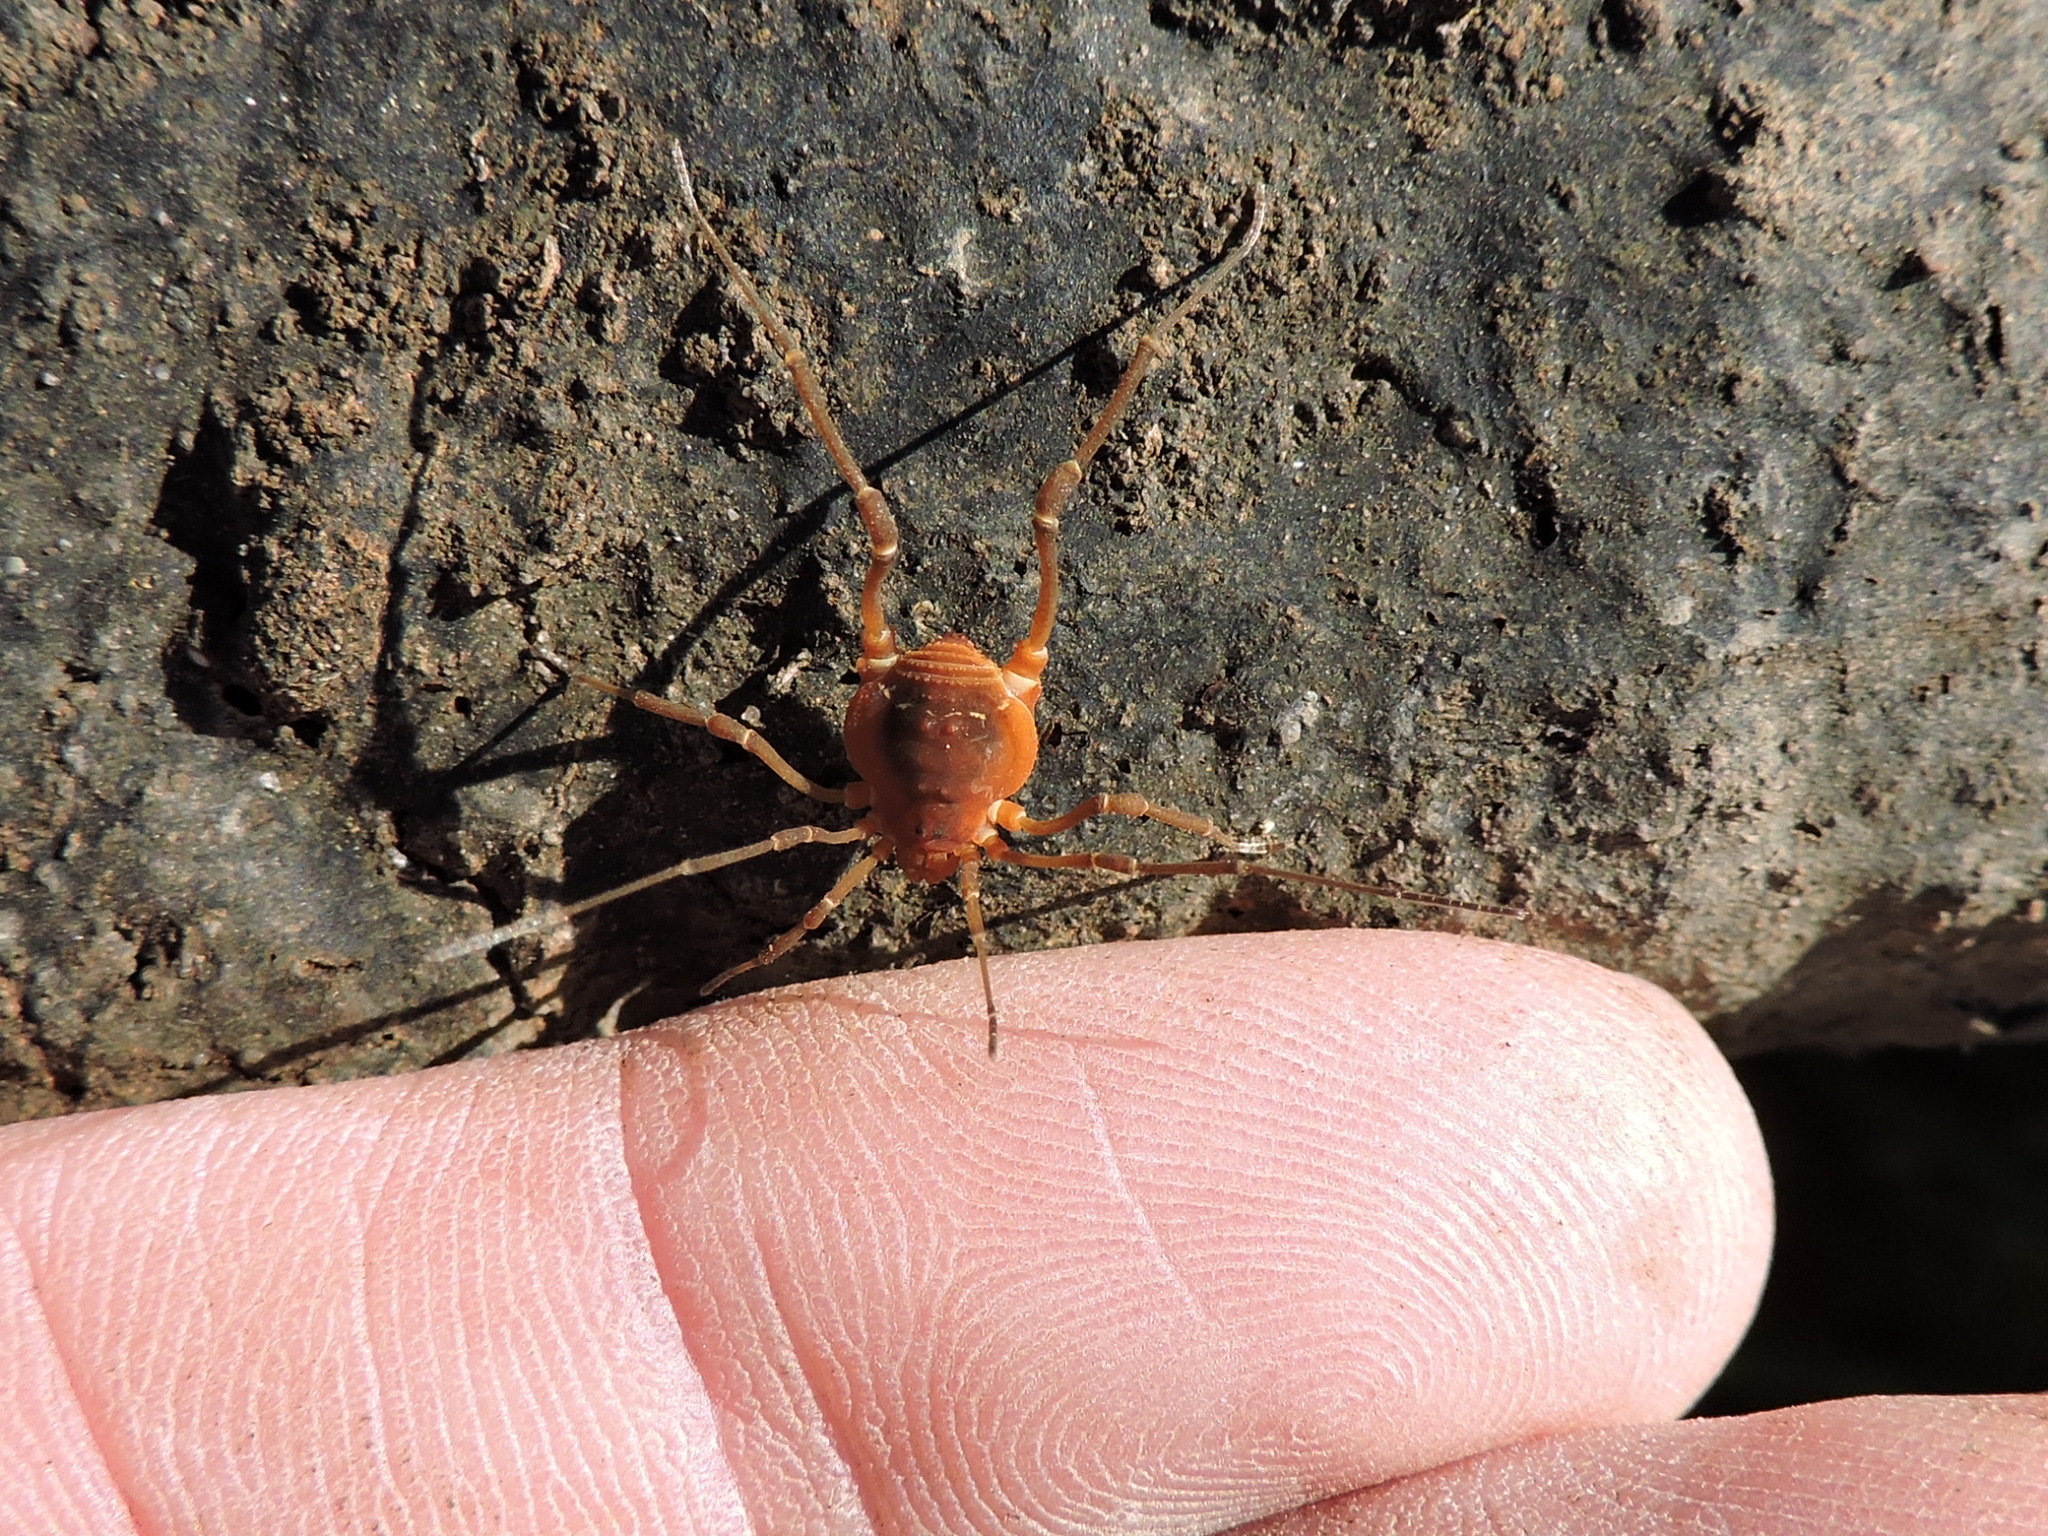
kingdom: Animalia
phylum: Arthropoda
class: Arachnida
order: Opiliones
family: Cosmetidae
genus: Libitioides
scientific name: Libitioides sayi
